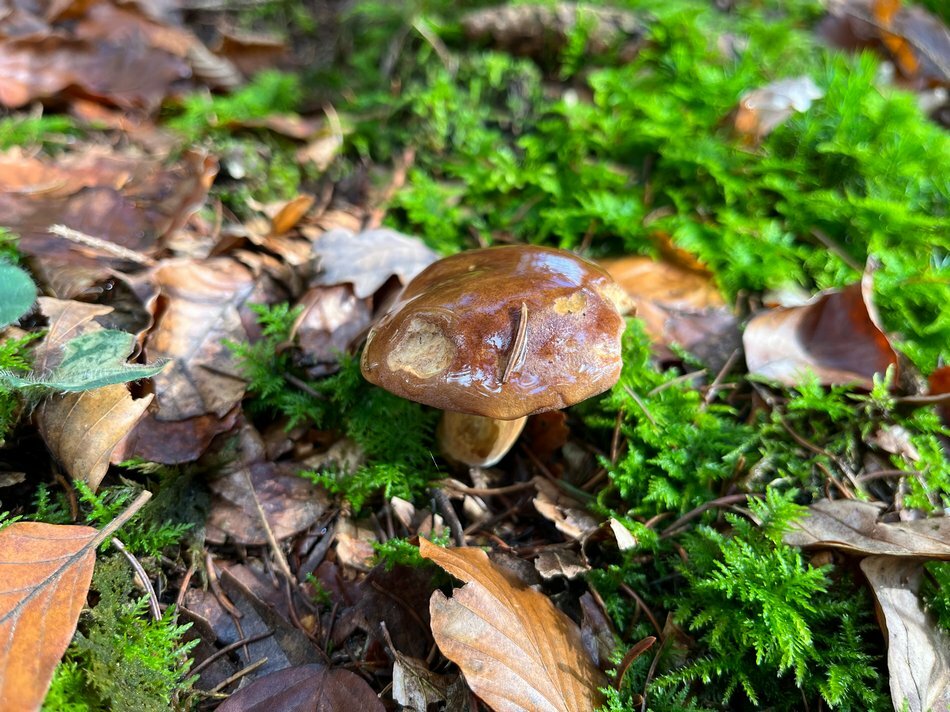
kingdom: Fungi
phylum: Basidiomycota
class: Agaricomycetes
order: Boletales
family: Boletaceae
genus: Imleria
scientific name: Imleria badia
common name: Bay bolete
